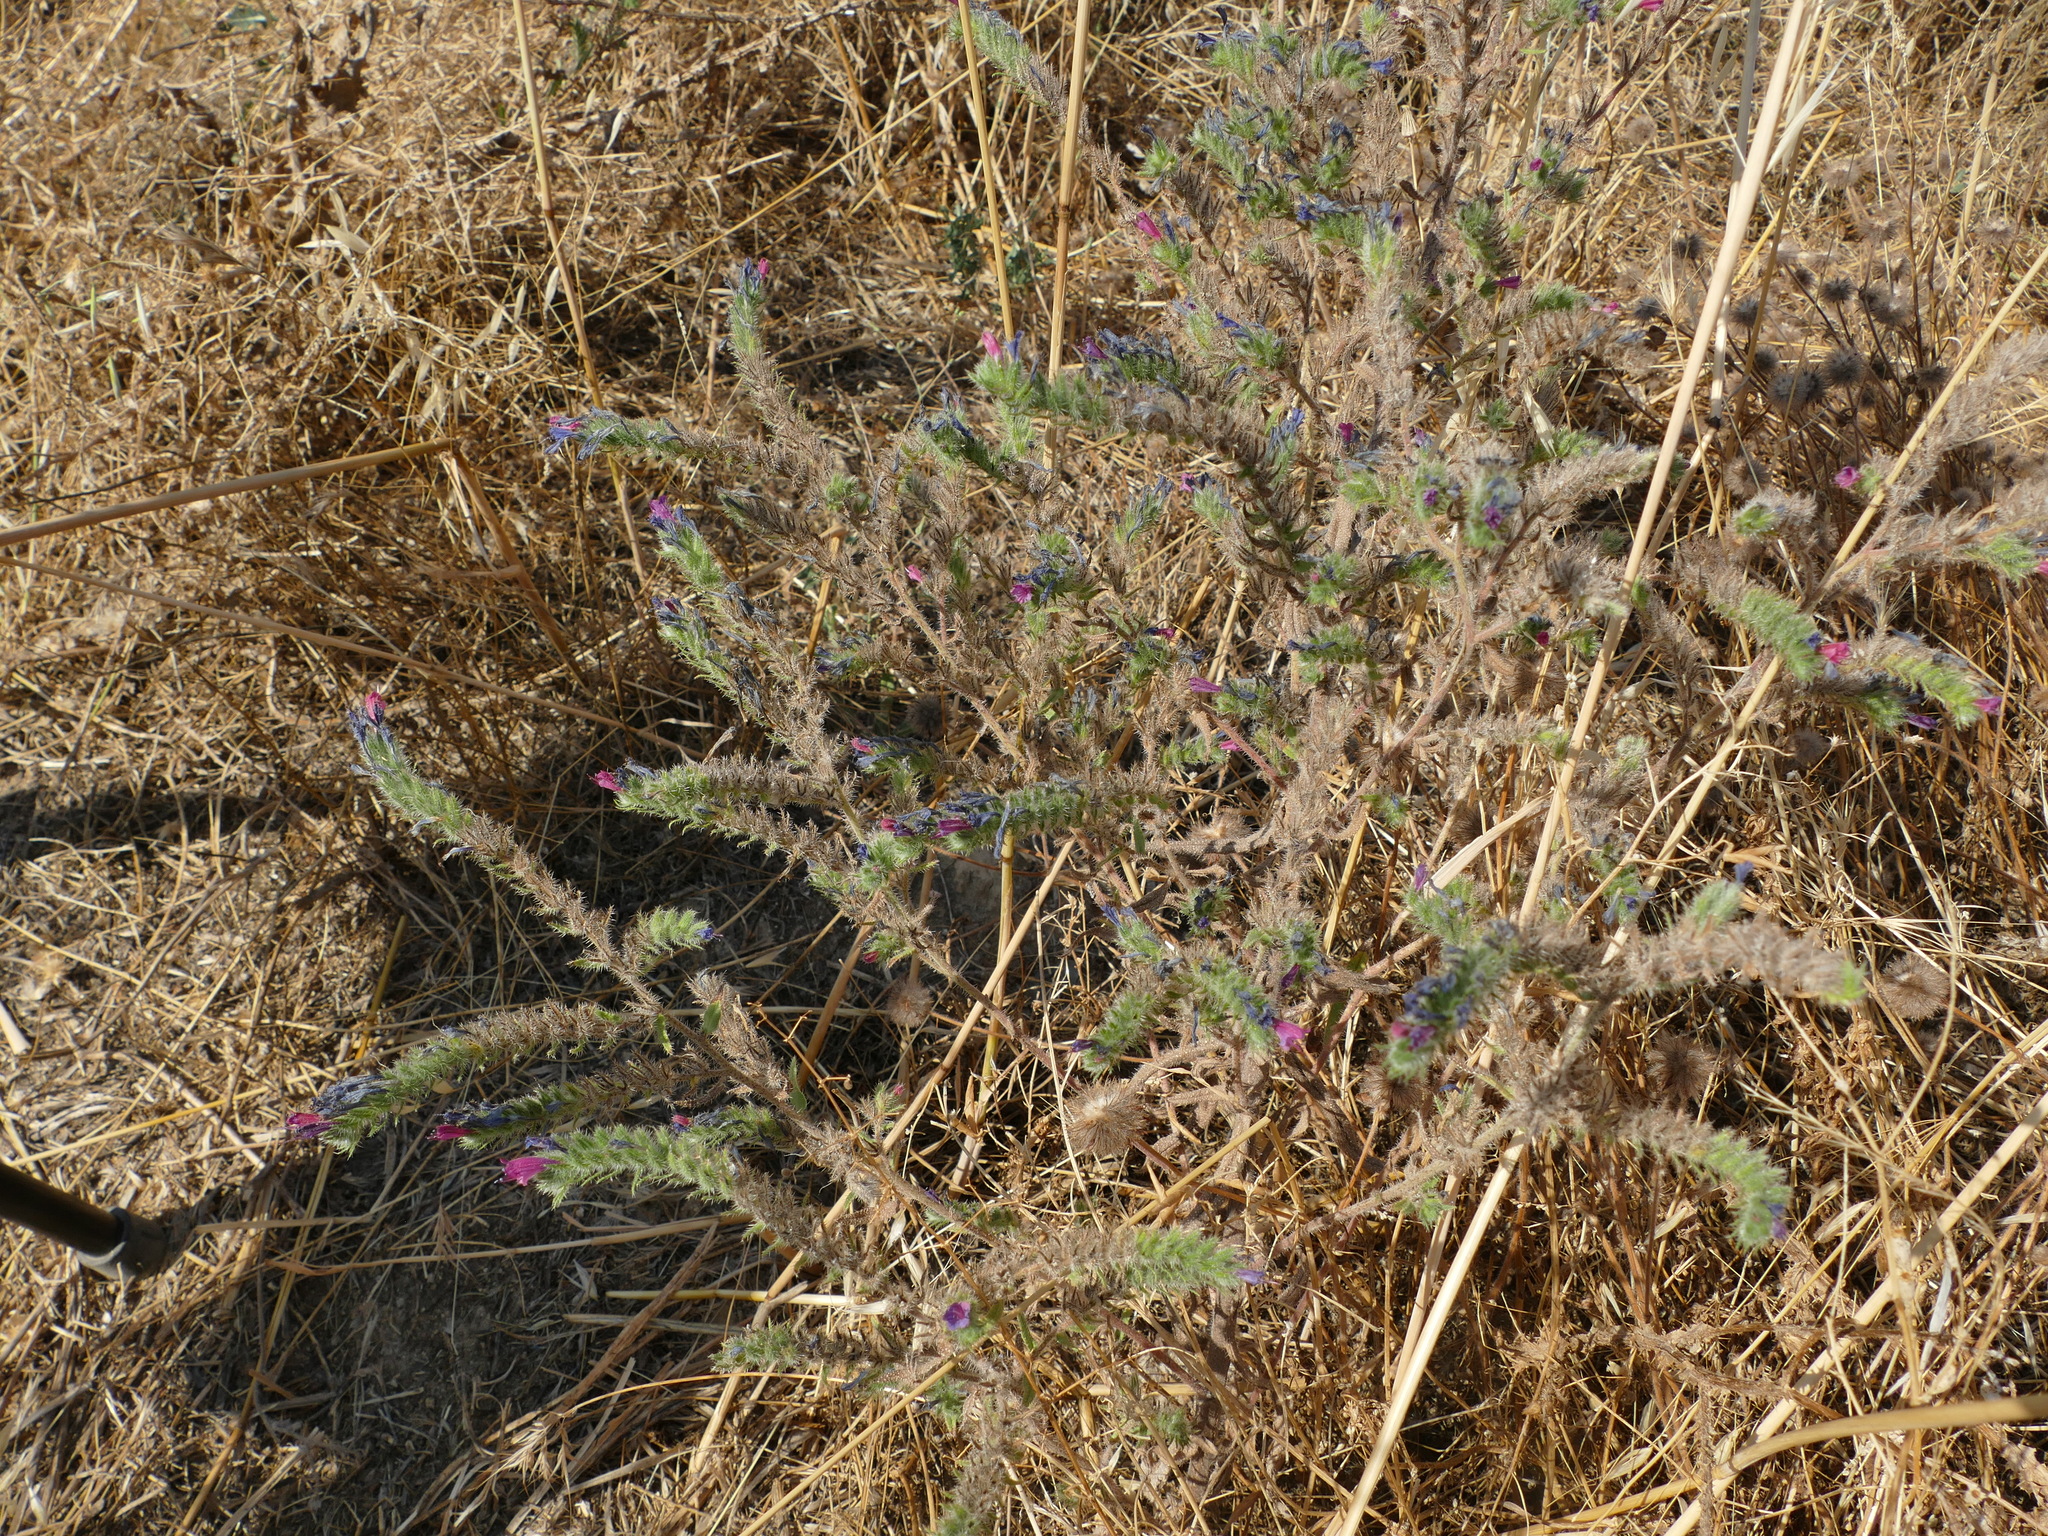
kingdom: Plantae
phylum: Tracheophyta
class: Magnoliopsida
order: Boraginales
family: Boraginaceae
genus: Echium
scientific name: Echium vulgare
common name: Common viper's bugloss
